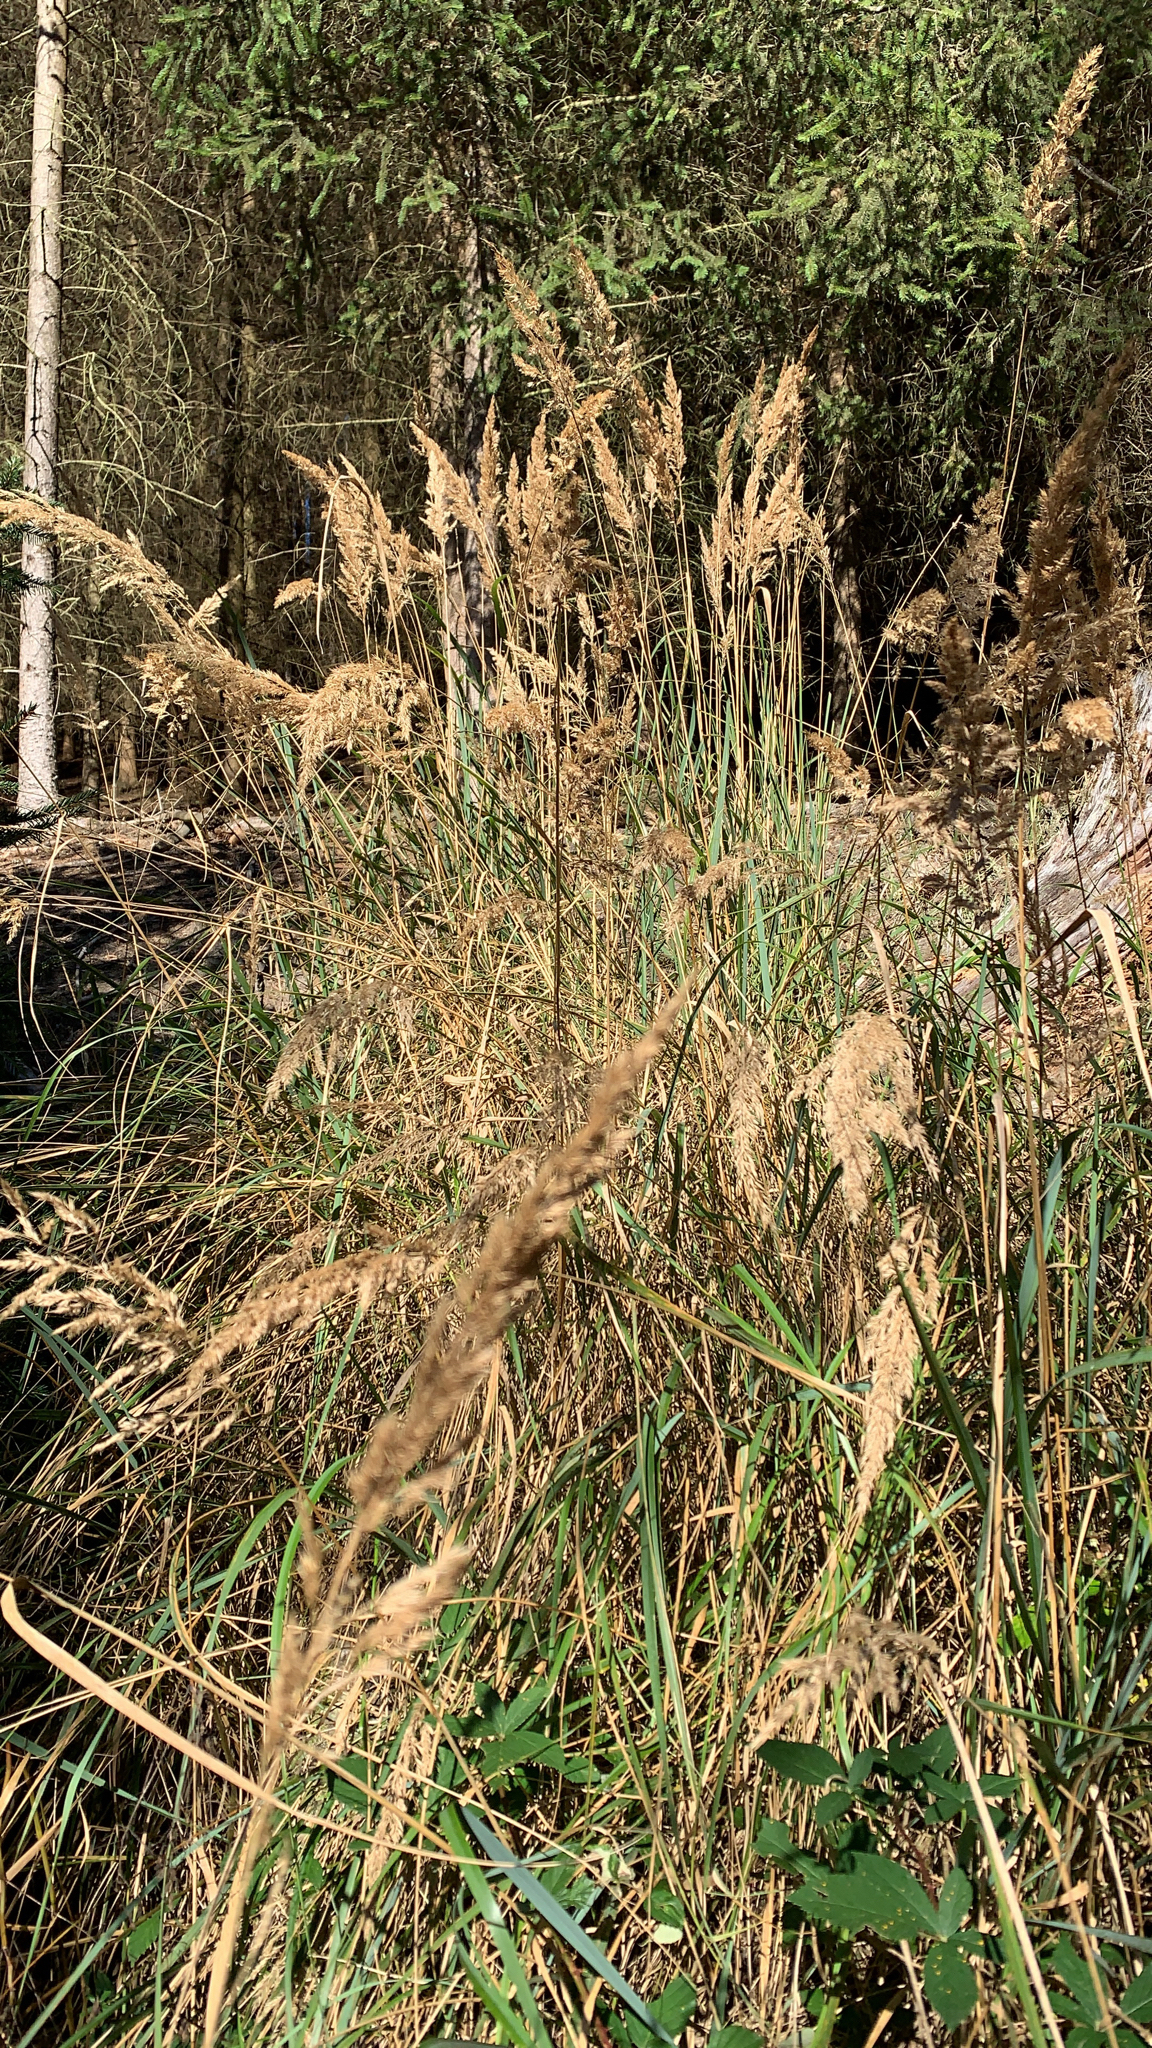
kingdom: Plantae
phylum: Tracheophyta
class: Liliopsida
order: Poales
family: Poaceae
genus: Calamagrostis
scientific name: Calamagrostis epigejos
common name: Wood small-reed
